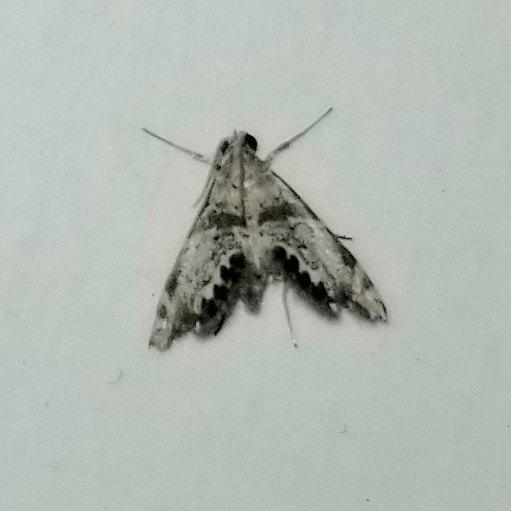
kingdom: Animalia
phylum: Arthropoda
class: Insecta
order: Lepidoptera
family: Crambidae
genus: Petrophila
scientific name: Petrophila jaliscalis
